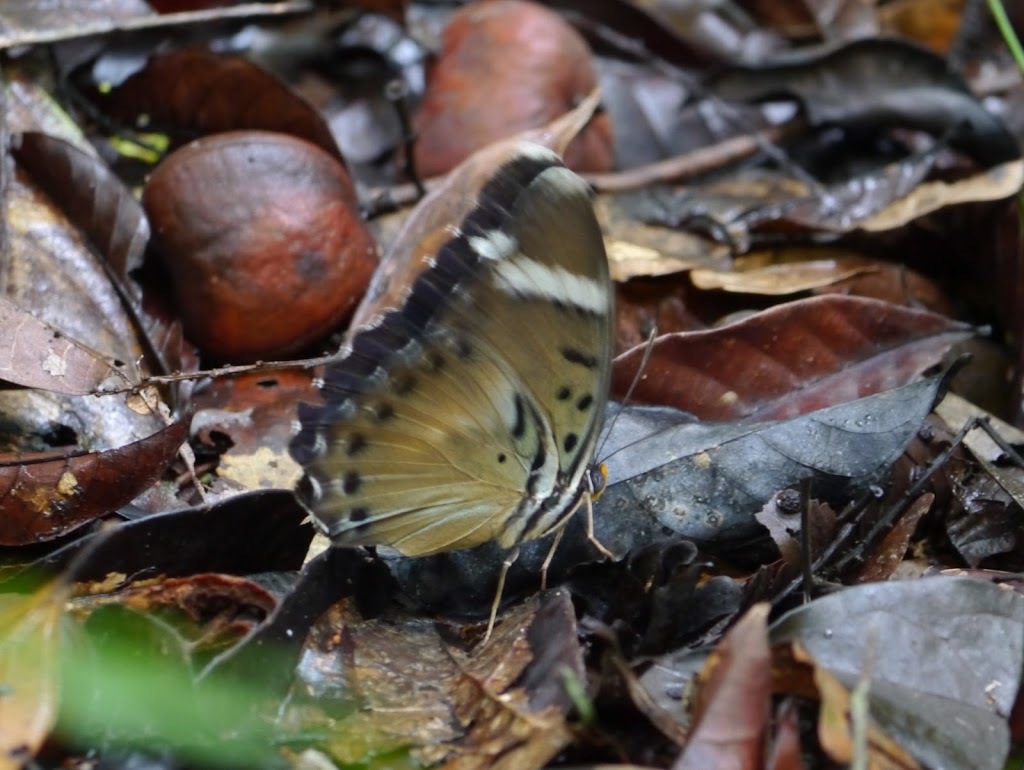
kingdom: Animalia
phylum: Arthropoda
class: Insecta
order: Lepidoptera
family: Nymphalidae
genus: Euphaedra
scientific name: Euphaedra rezia
